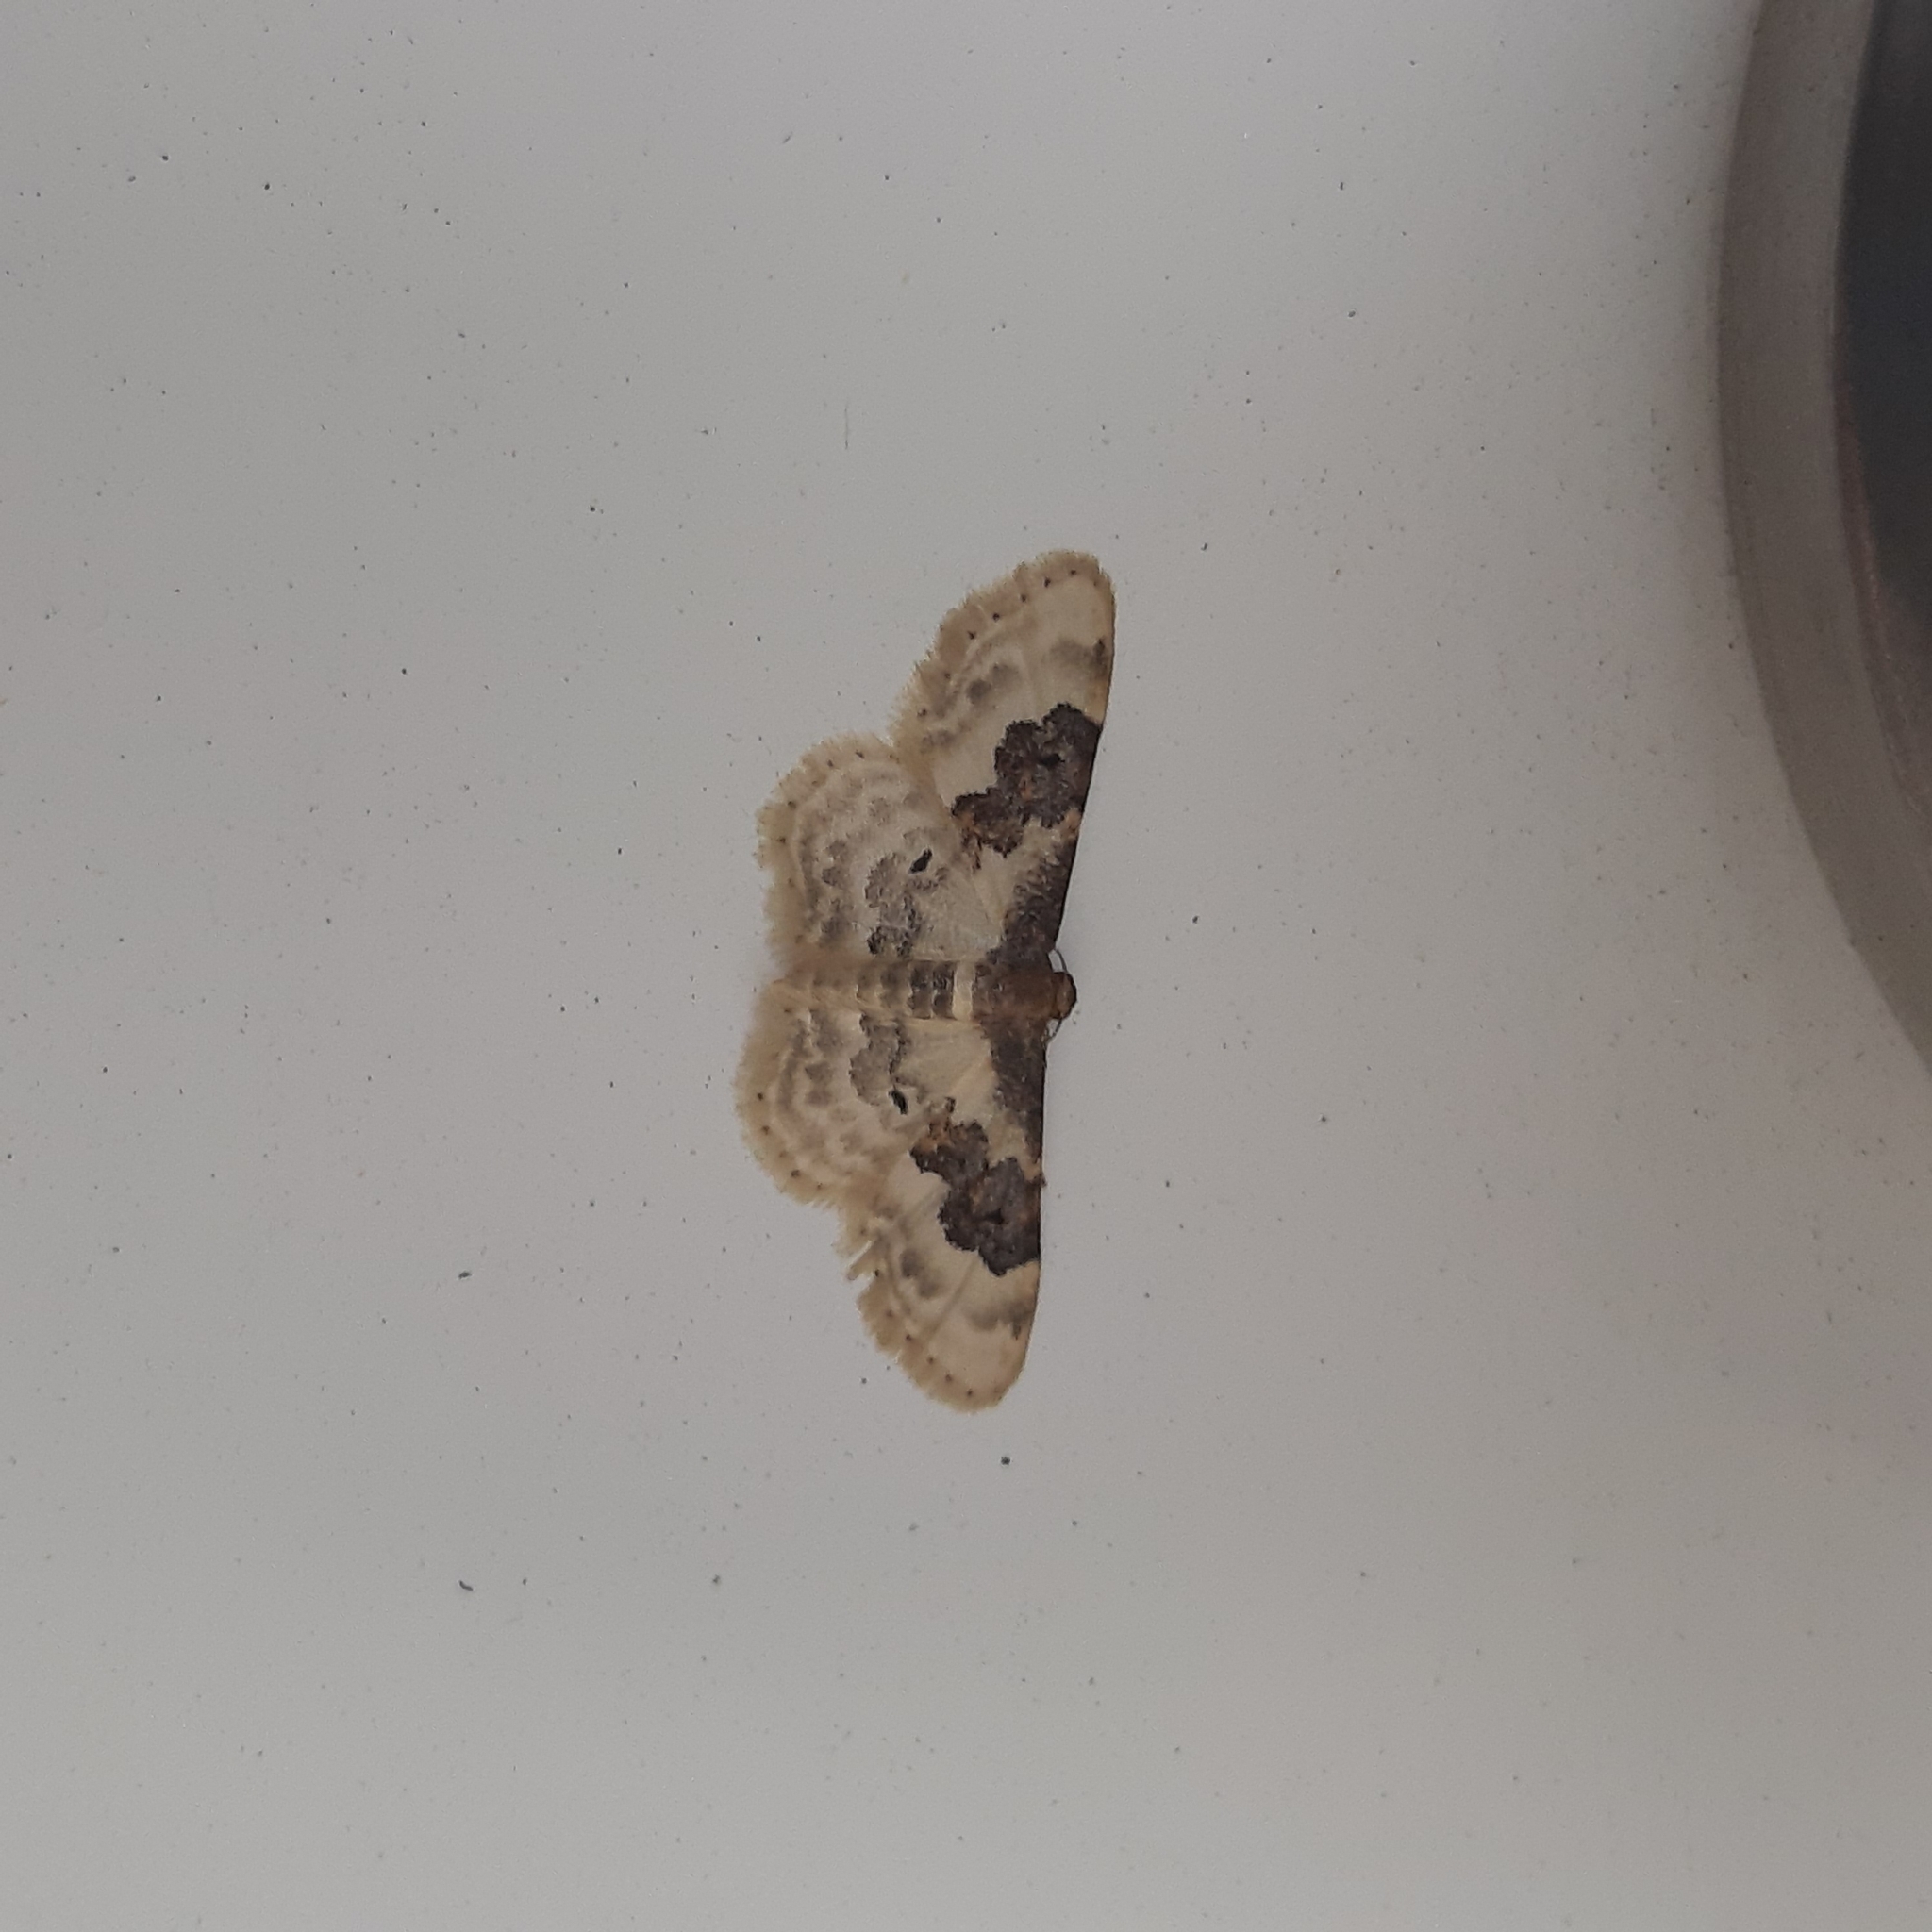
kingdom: Animalia
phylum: Arthropoda
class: Insecta
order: Lepidoptera
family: Geometridae
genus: Idaea
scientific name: Idaea rusticata
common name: Least carpet
